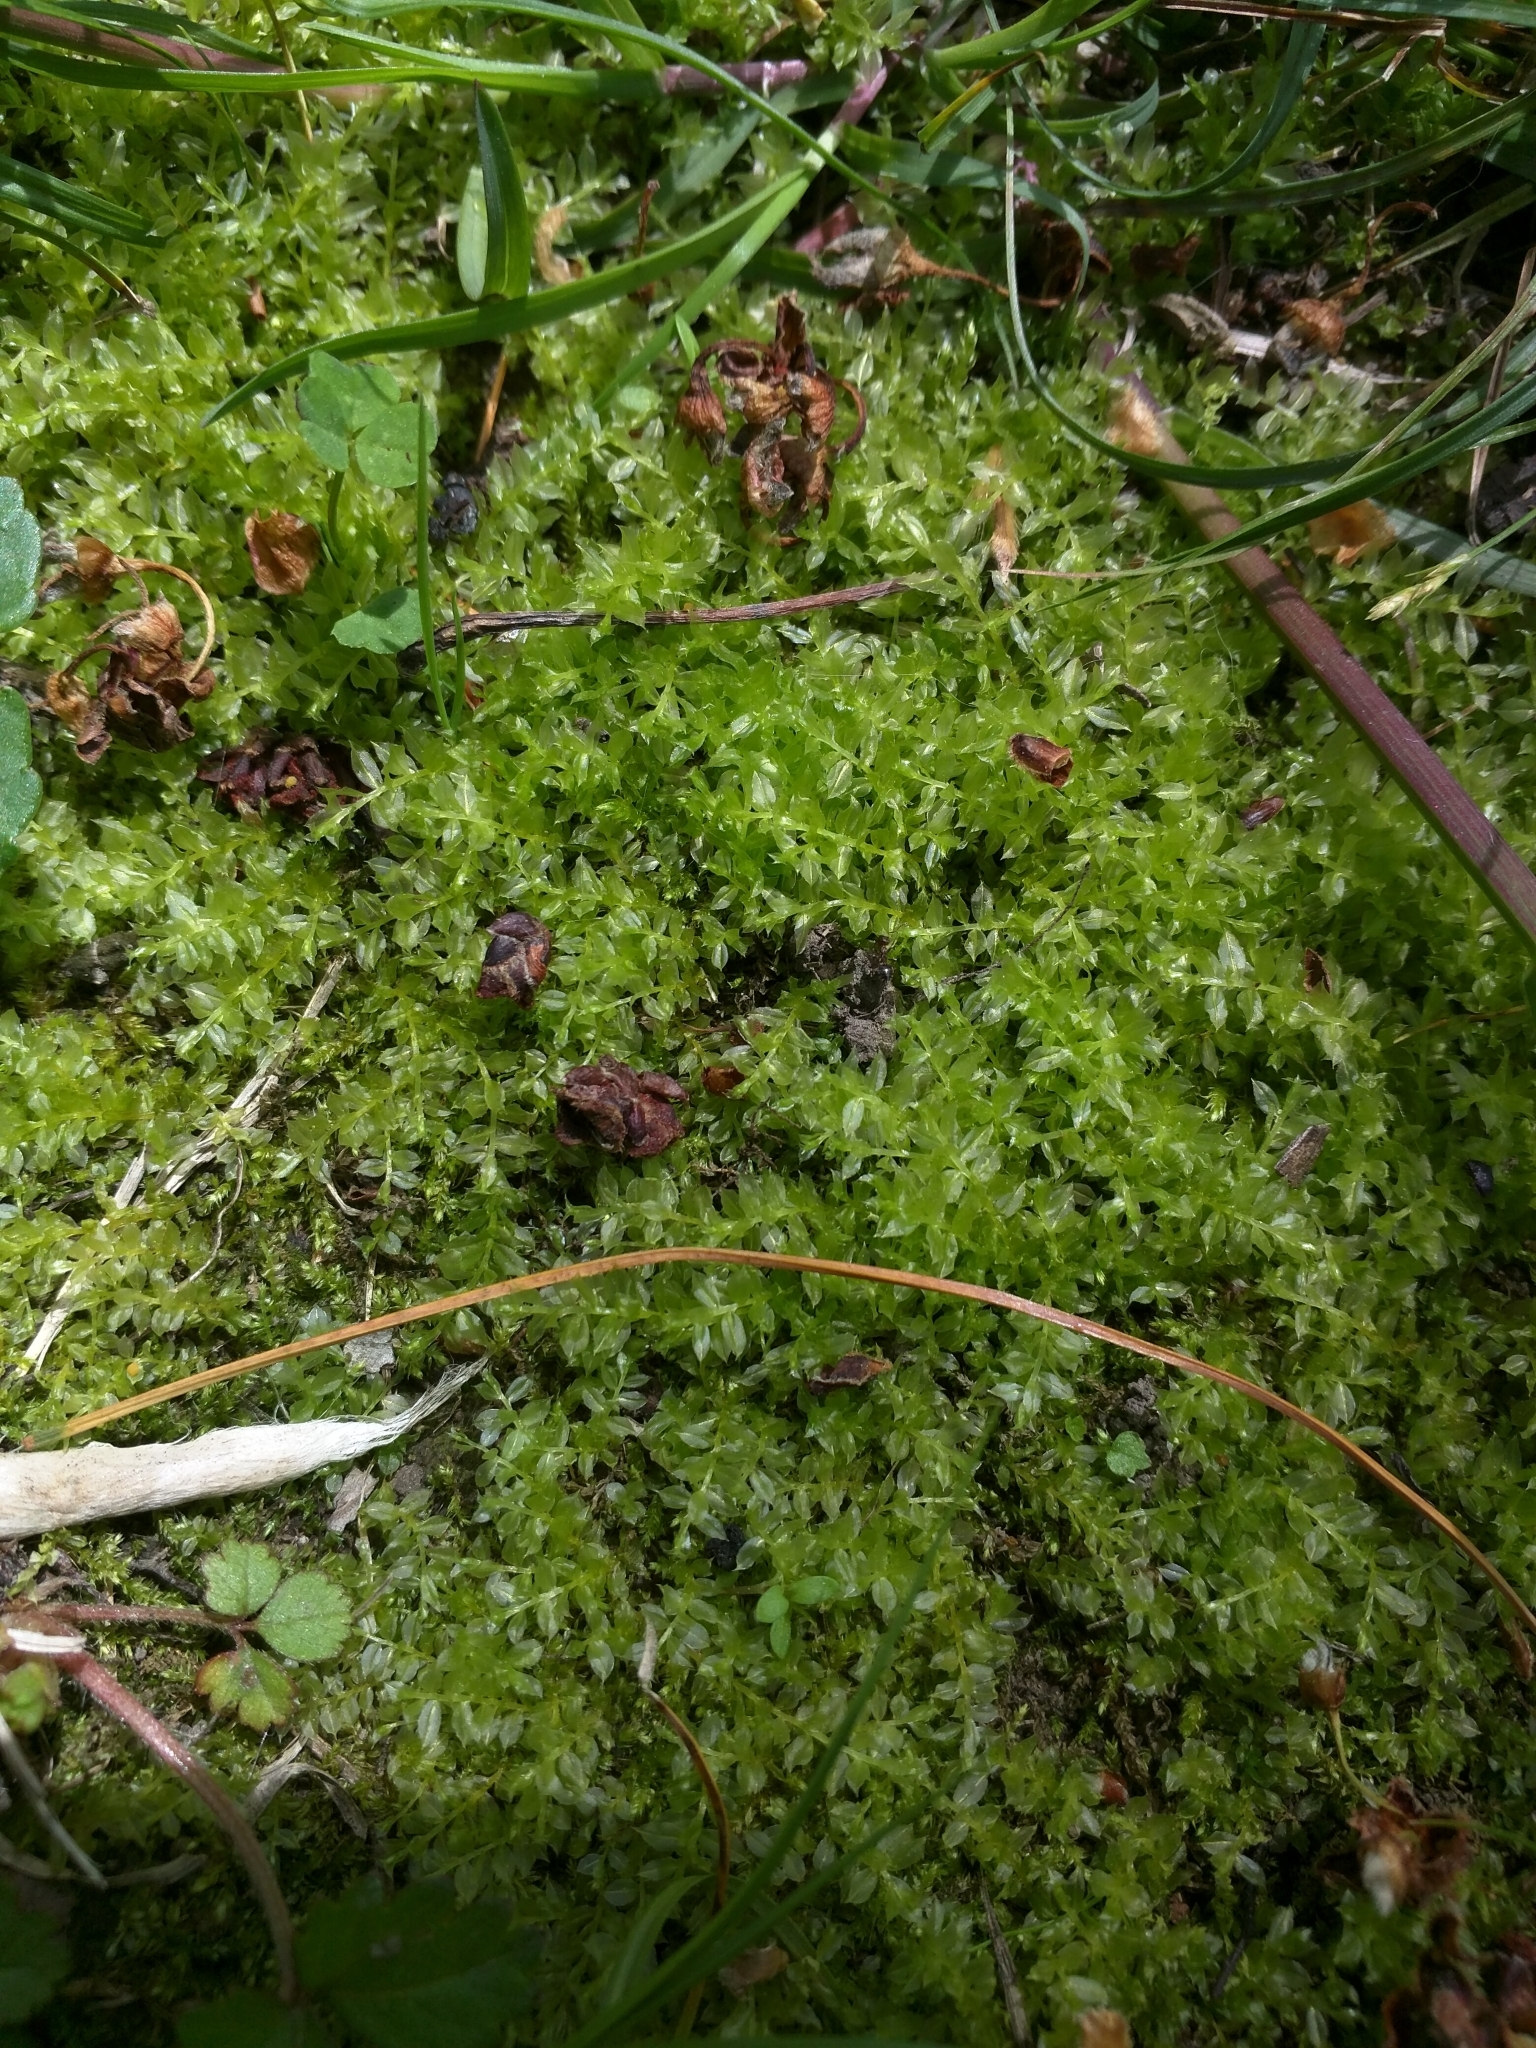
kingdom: Plantae
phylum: Bryophyta
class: Bryopsida
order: Bryales
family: Mniaceae
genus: Plagiomnium
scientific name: Plagiomnium cuspidatum
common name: Woodsy leafy moss
